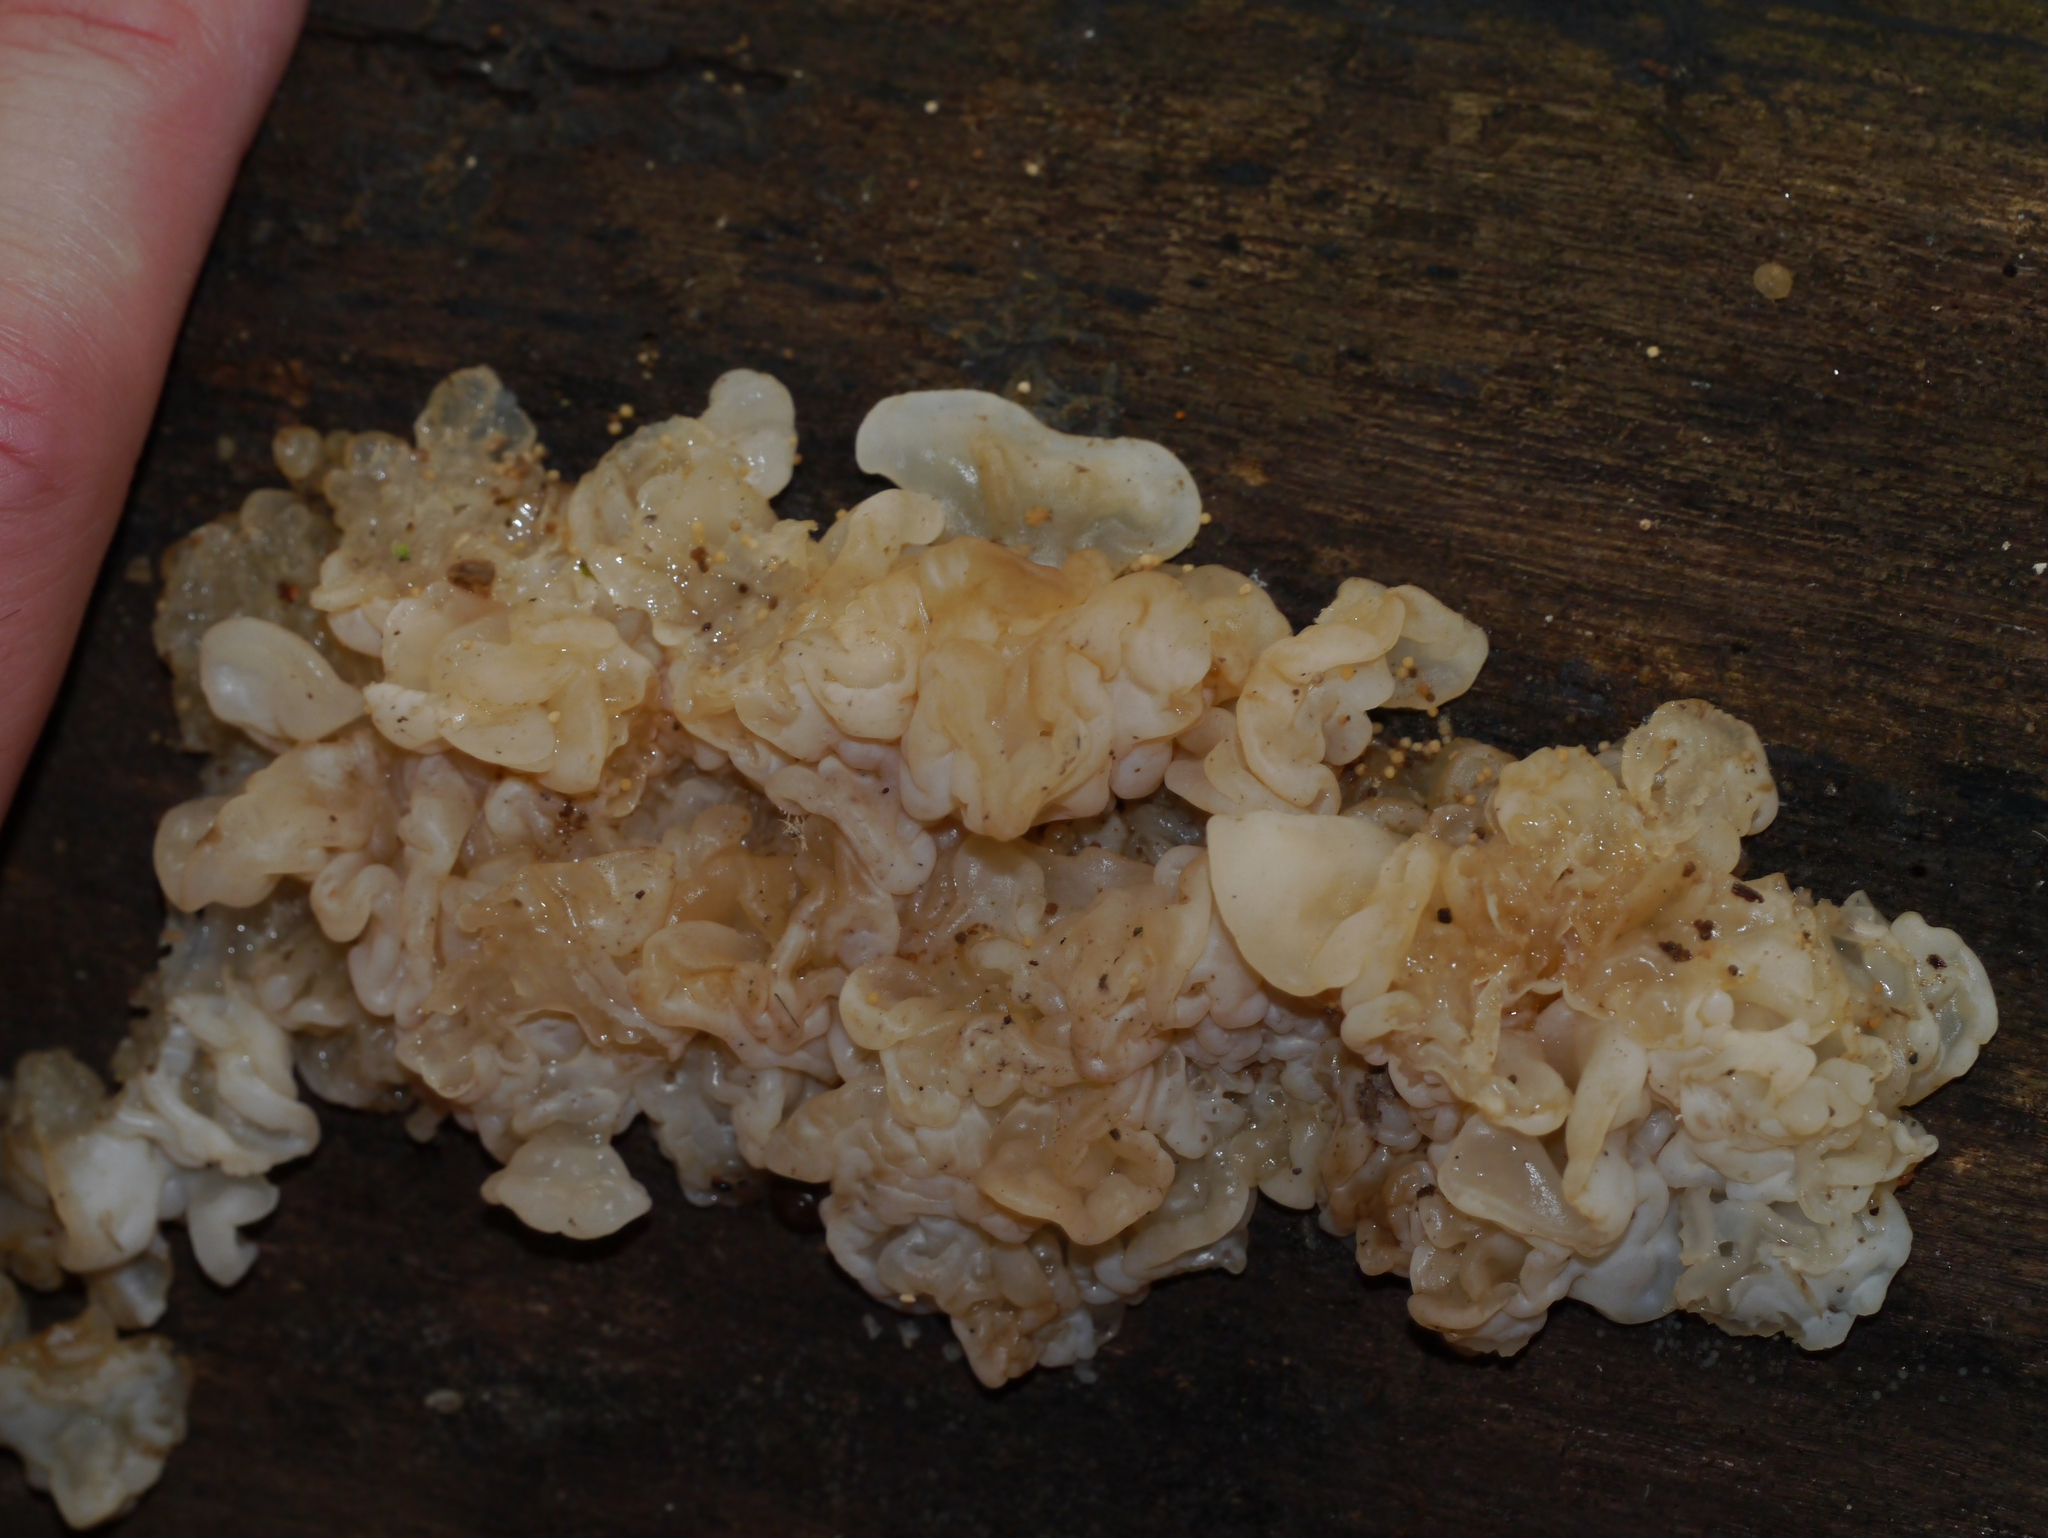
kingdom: Fungi
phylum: Basidiomycota
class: Agaricomycetes
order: Auriculariales
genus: Ductifera
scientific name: Ductifera pululahuana
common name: White jelly fungus
